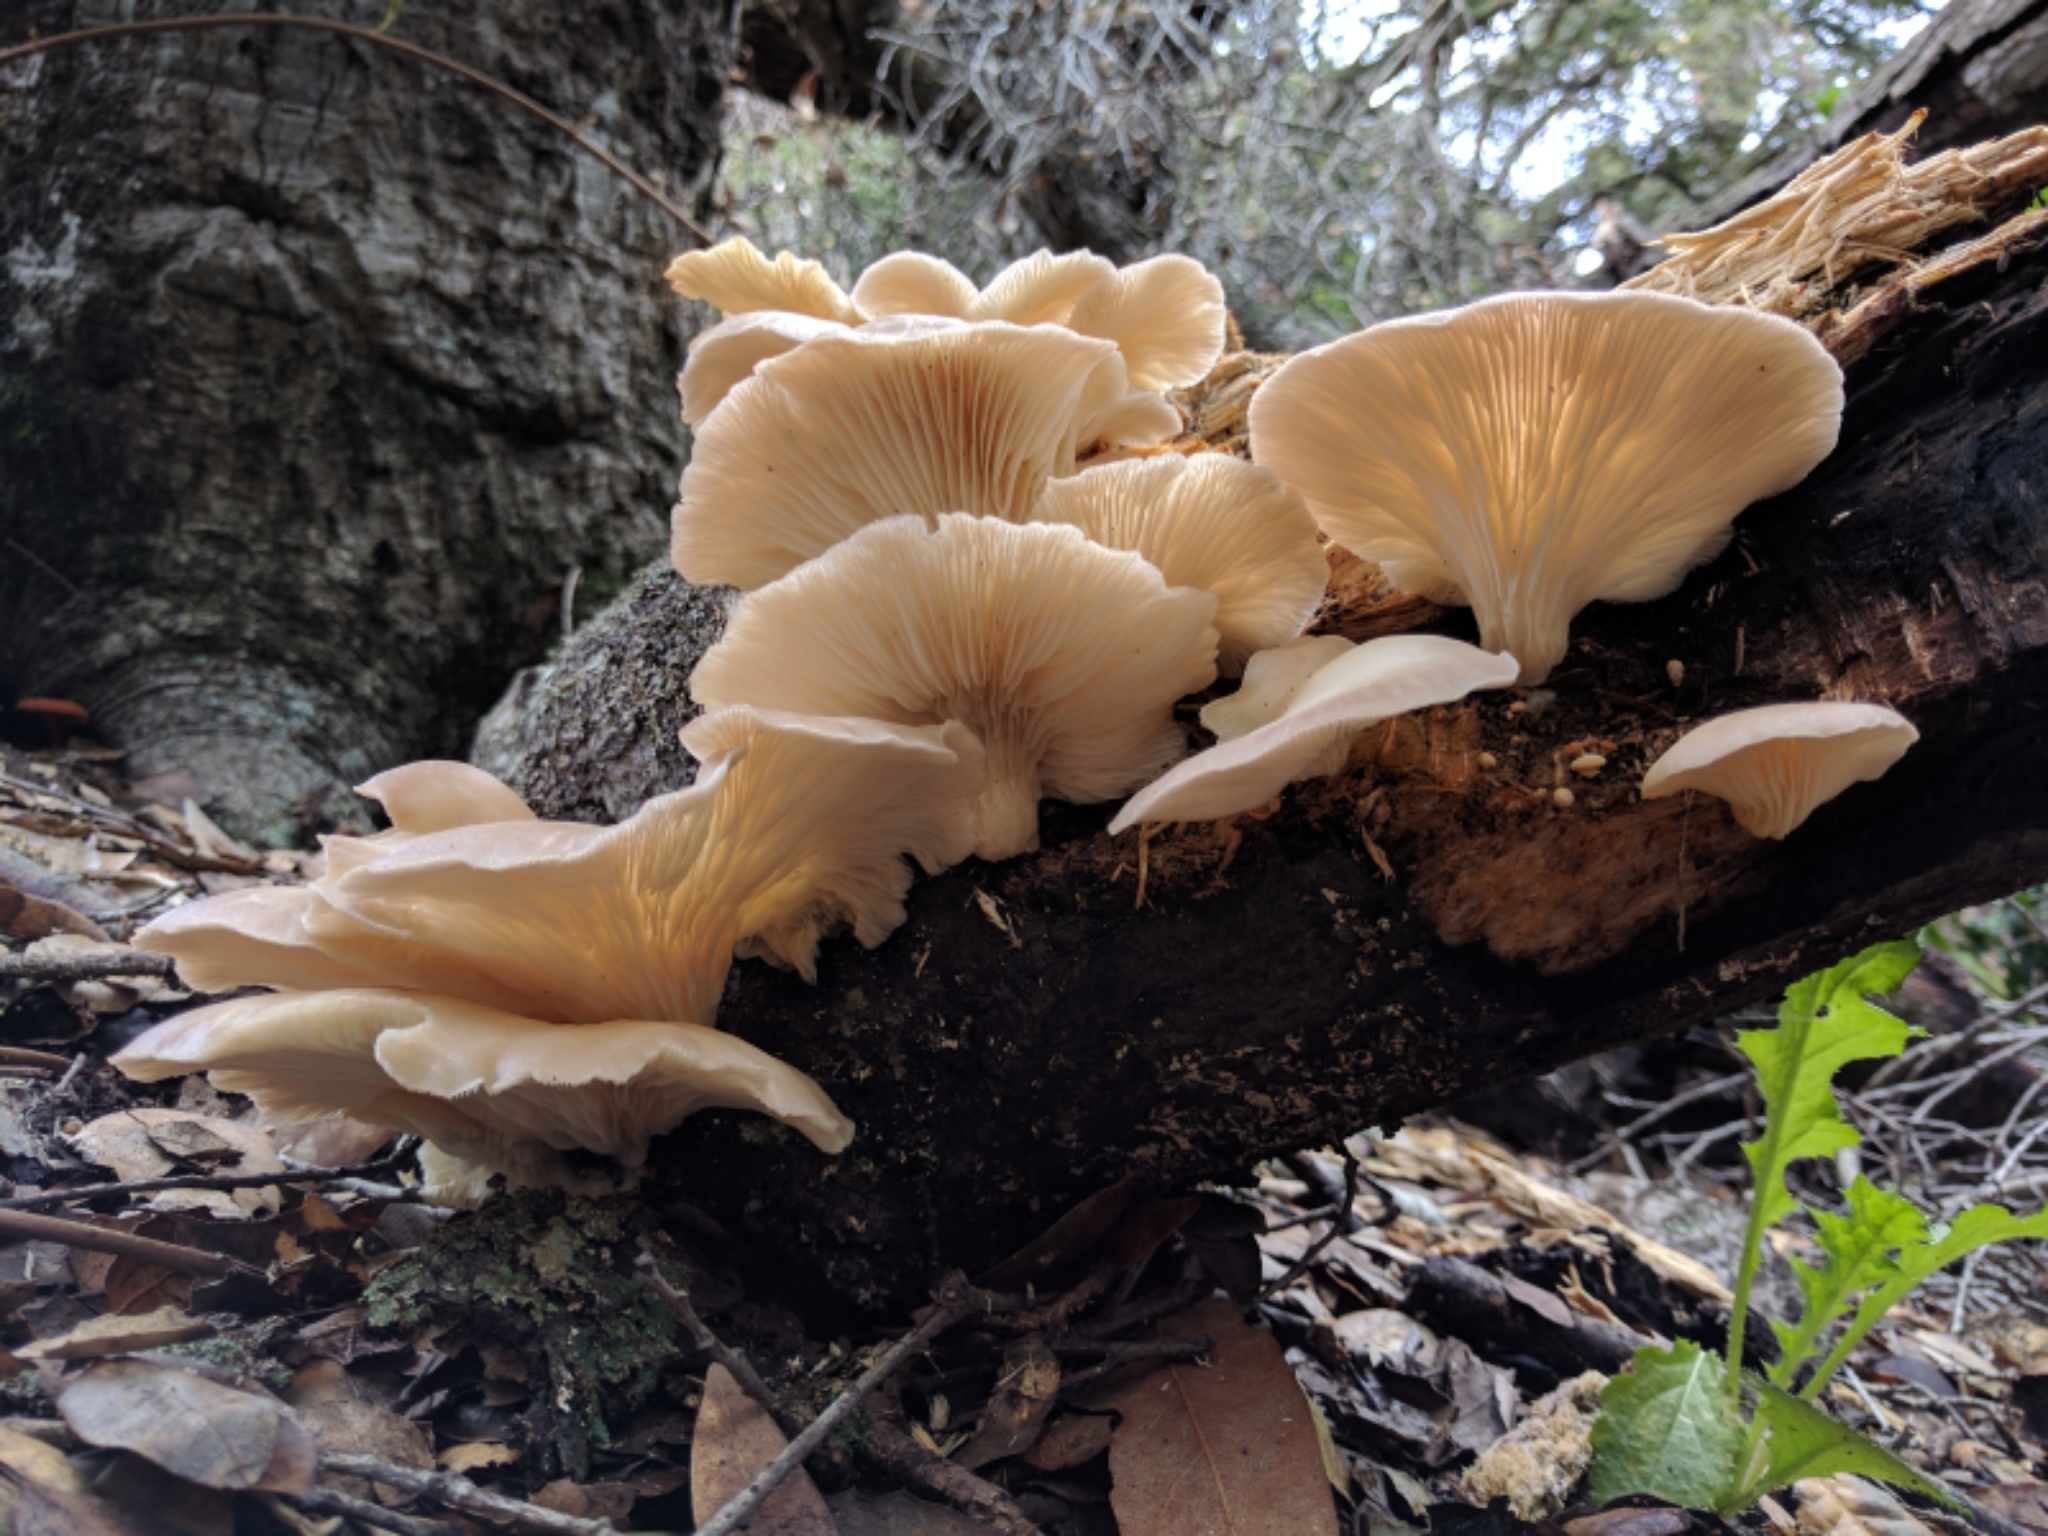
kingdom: Fungi
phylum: Basidiomycota
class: Agaricomycetes
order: Agaricales
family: Pleurotaceae
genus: Pleurotus
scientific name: Pleurotus ostreatus
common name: Oyster mushroom
